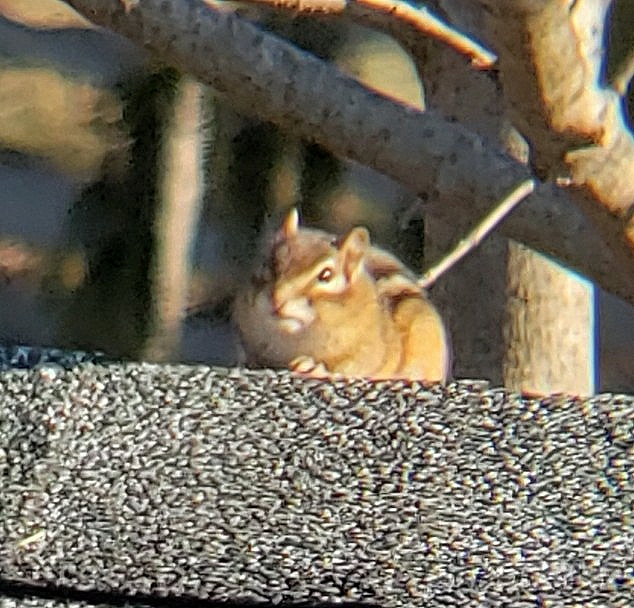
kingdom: Animalia
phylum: Chordata
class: Mammalia
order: Rodentia
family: Sciuridae
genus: Tamias
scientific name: Tamias striatus
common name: Eastern chipmunk
